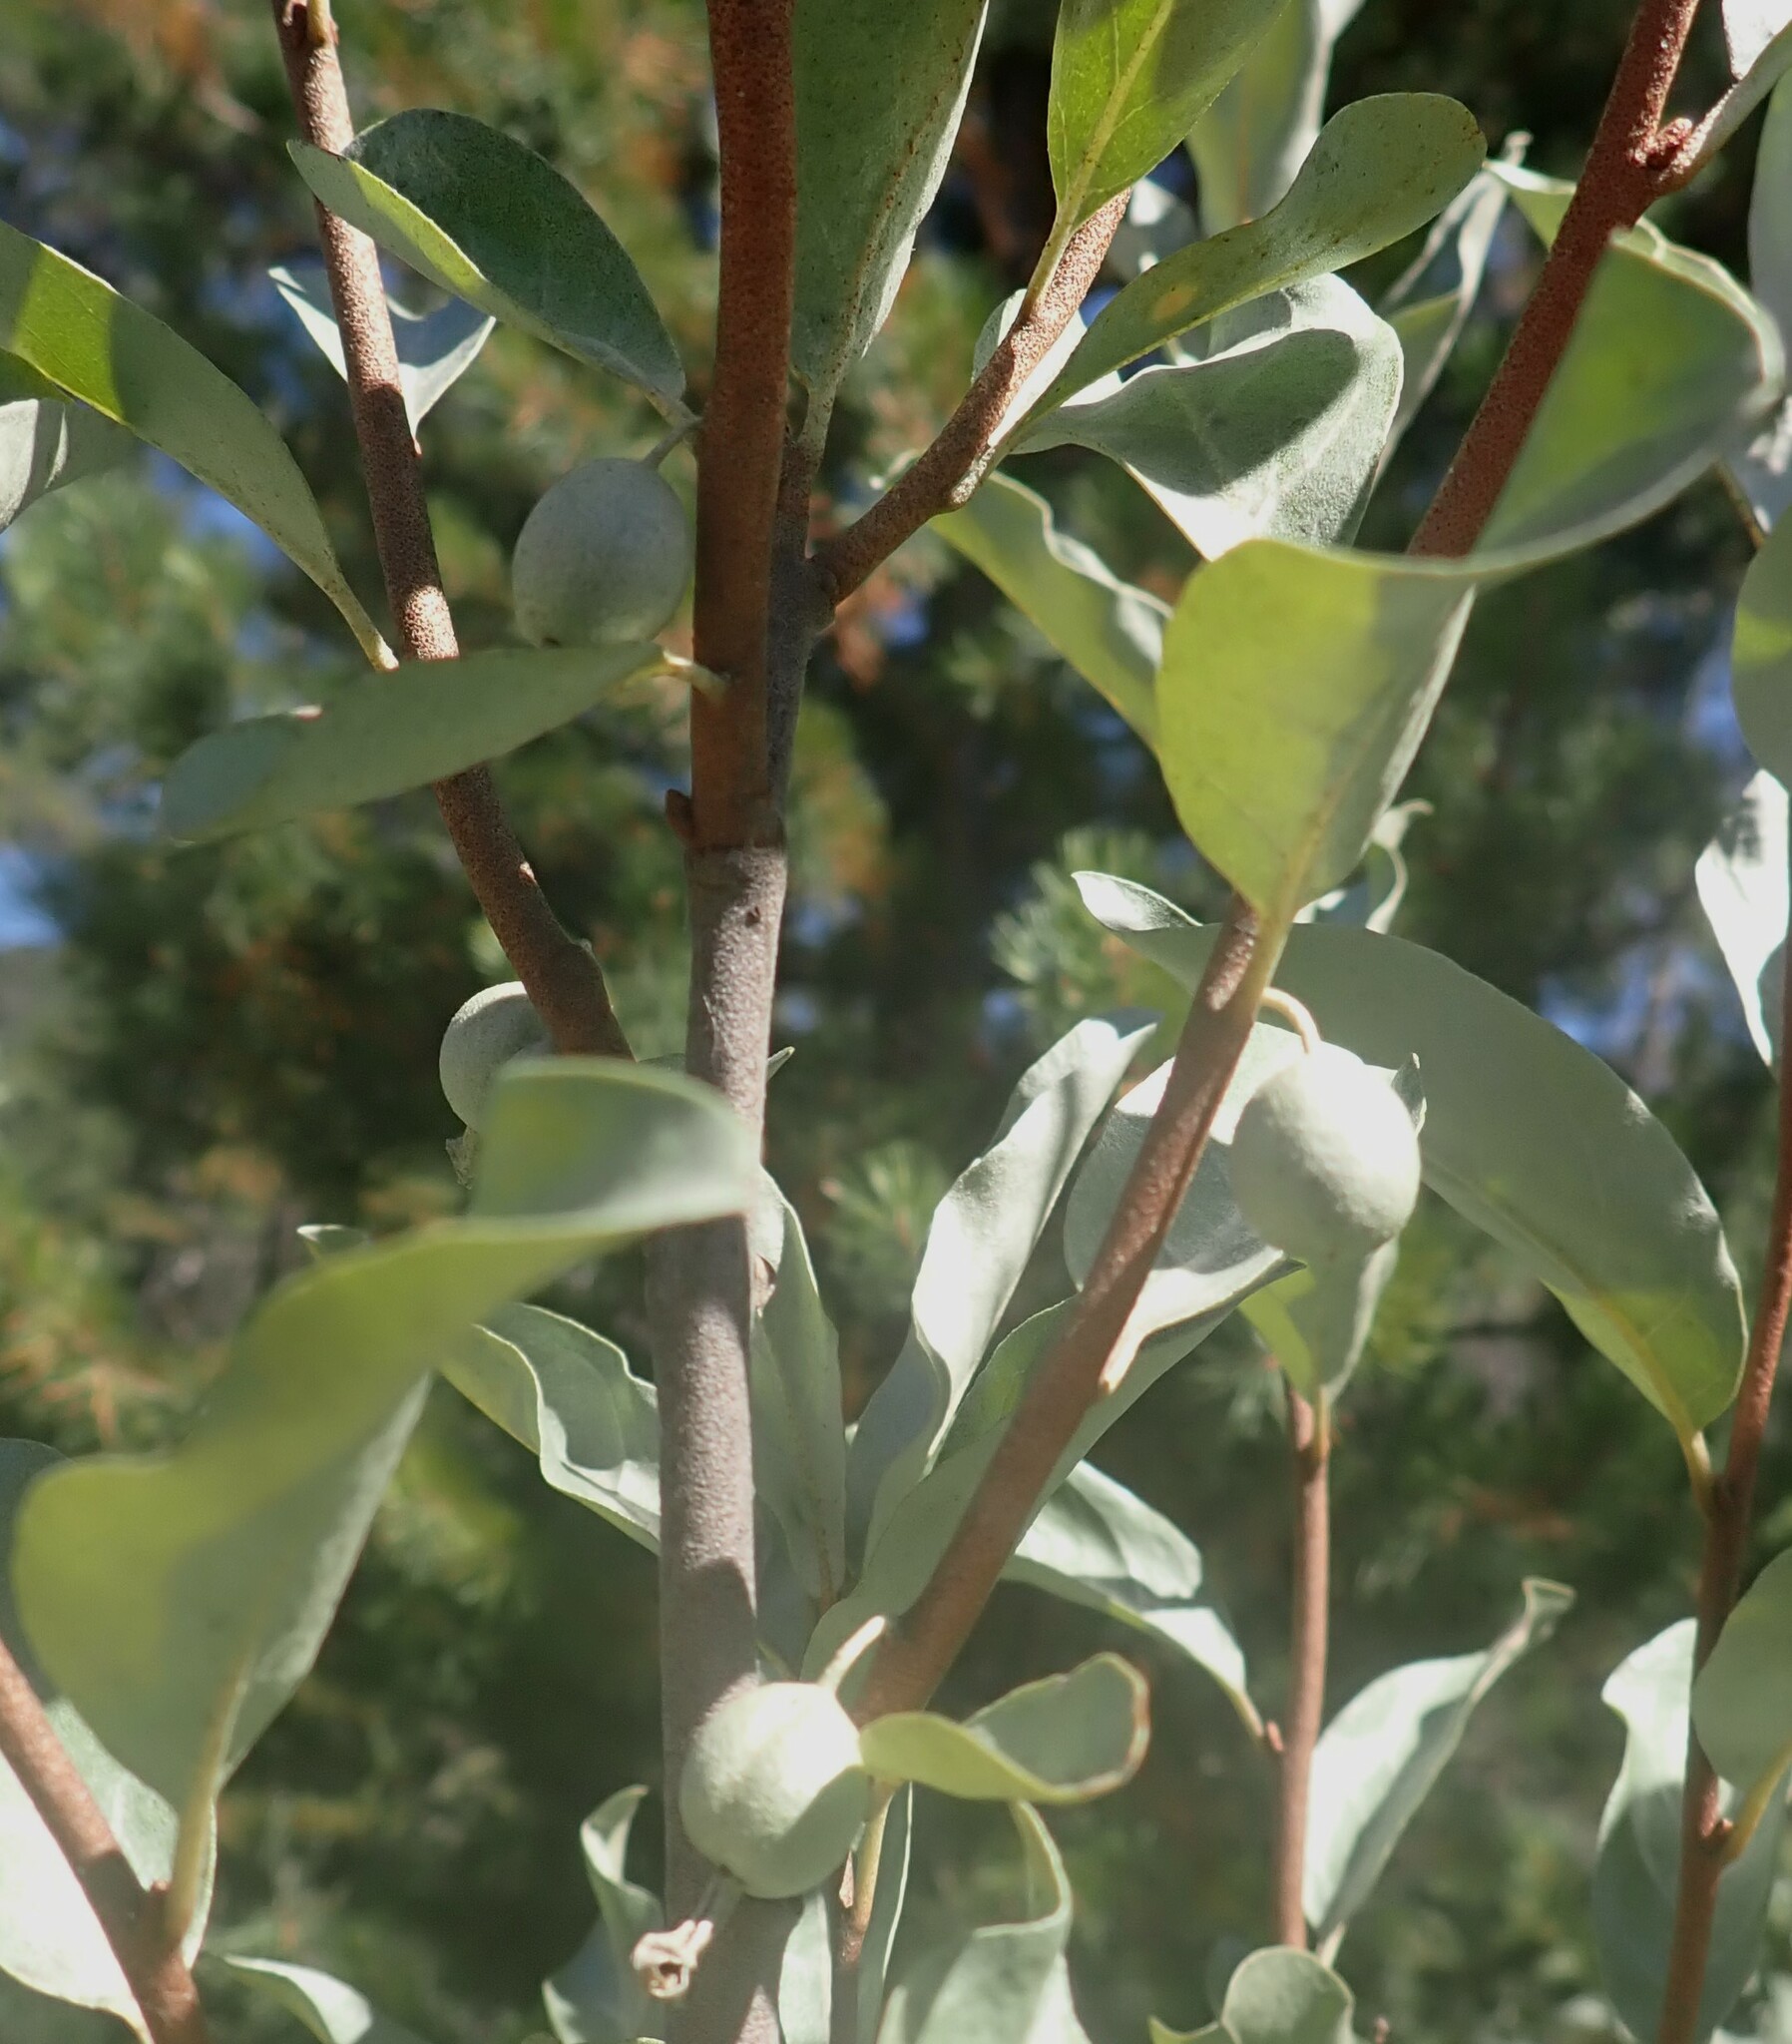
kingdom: Plantae
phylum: Tracheophyta
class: Magnoliopsida
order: Rosales
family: Elaeagnaceae
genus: Elaeagnus
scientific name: Elaeagnus commutata
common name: Silverberry
